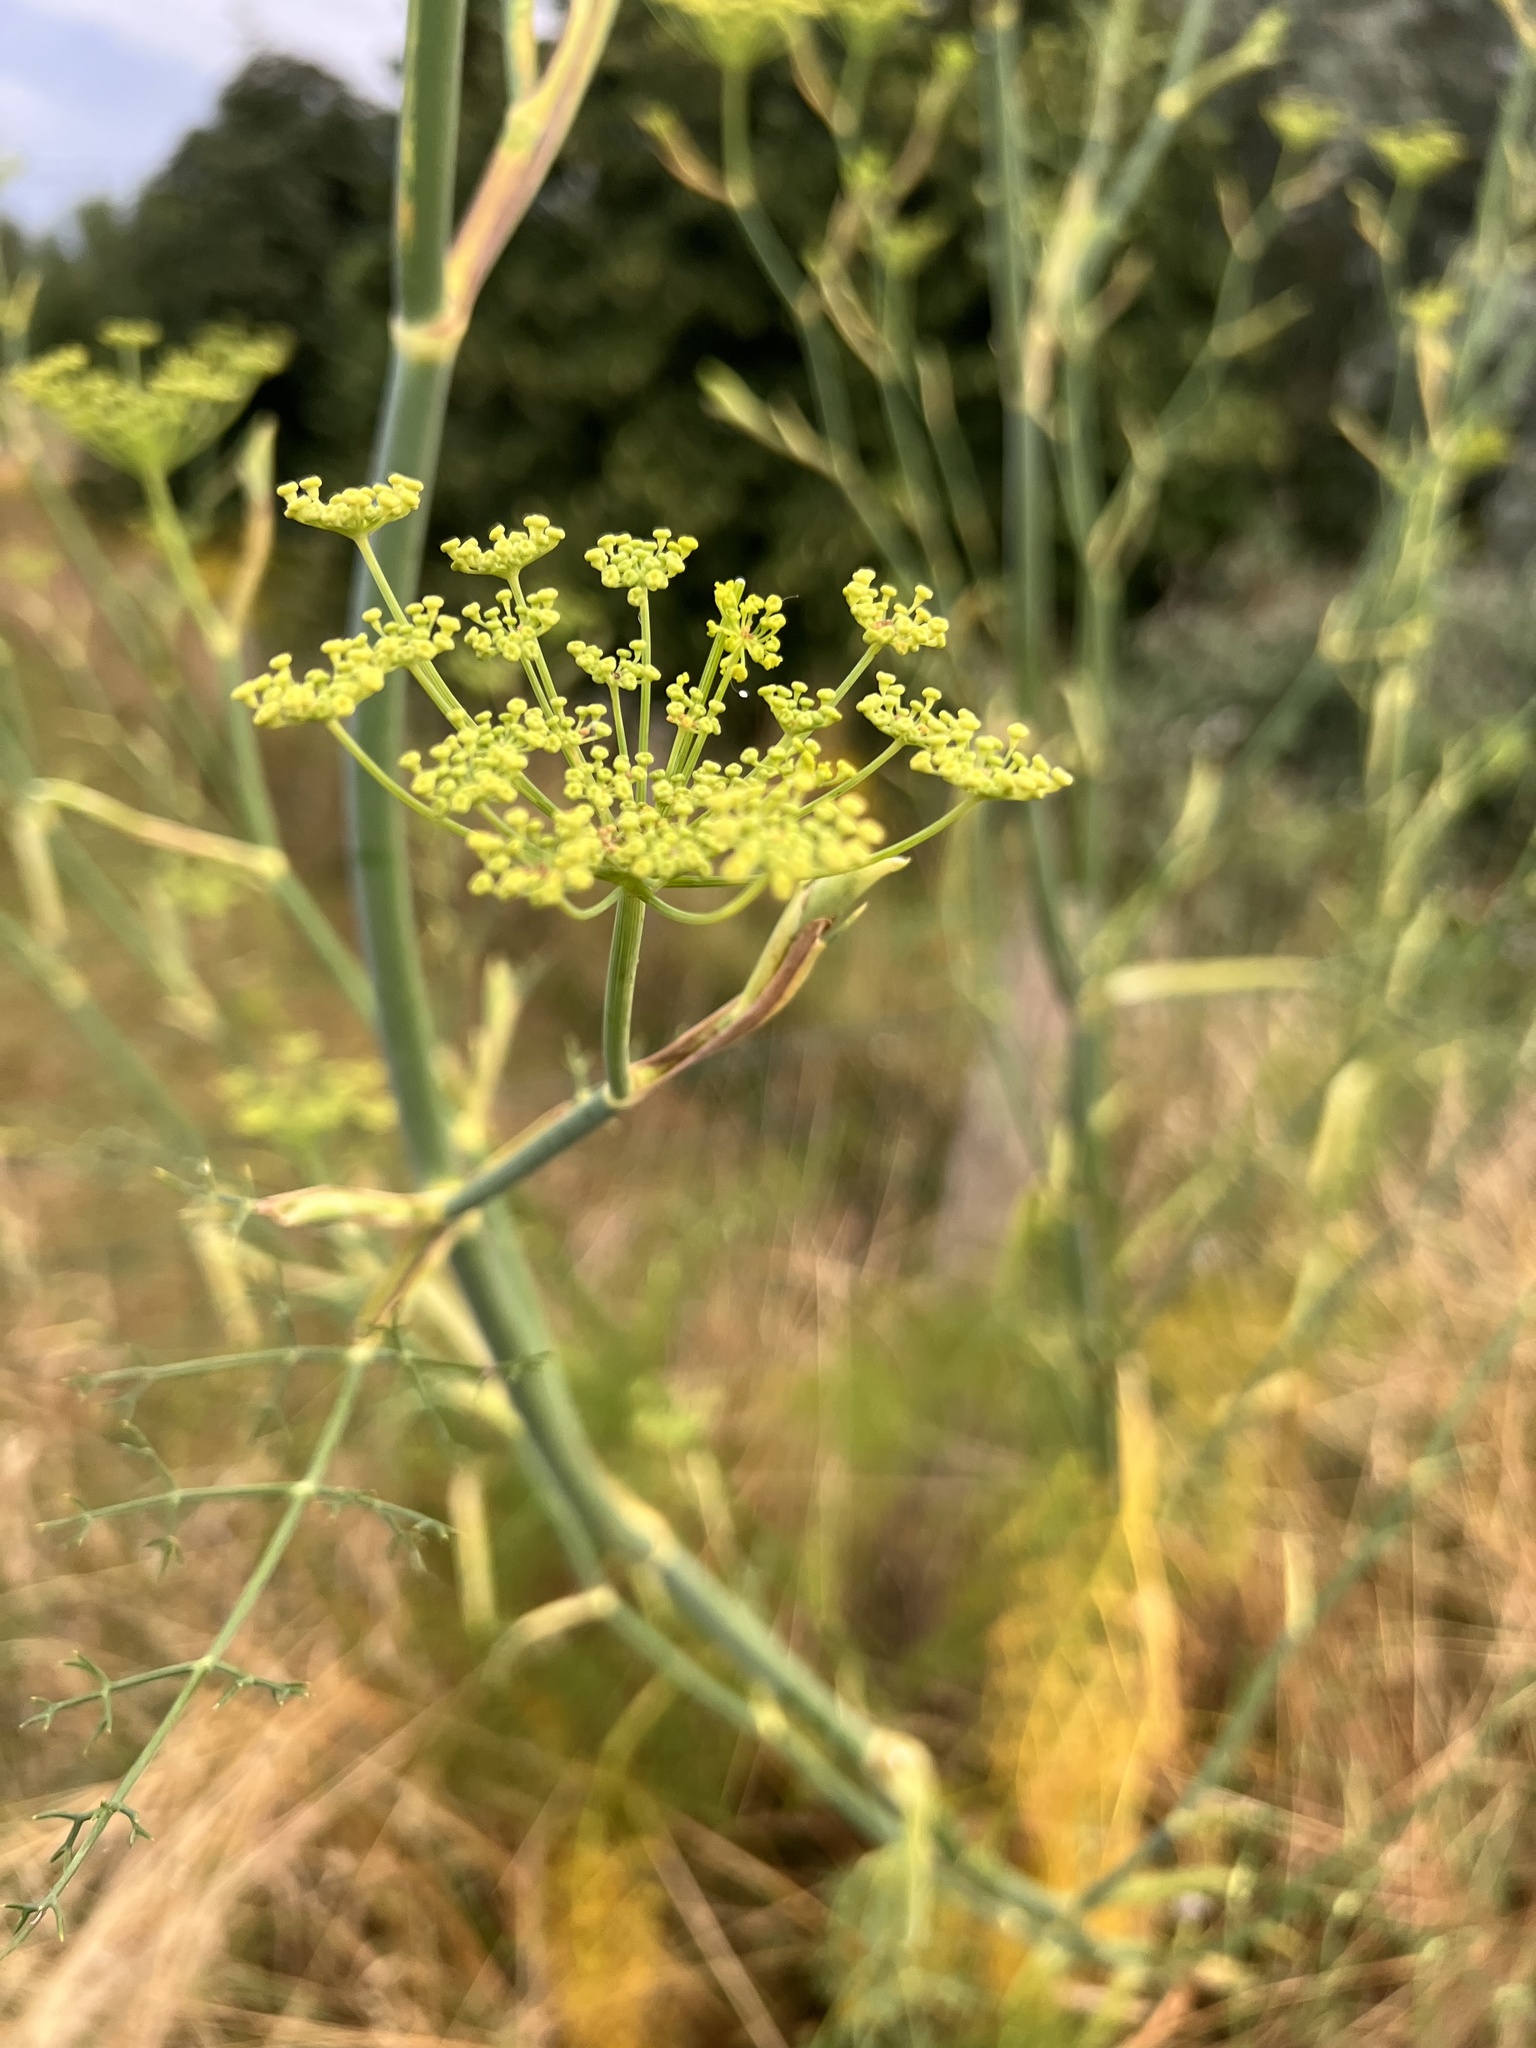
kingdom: Plantae
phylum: Tracheophyta
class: Magnoliopsida
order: Apiales
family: Apiaceae
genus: Foeniculum
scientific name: Foeniculum vulgare
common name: Fennel
